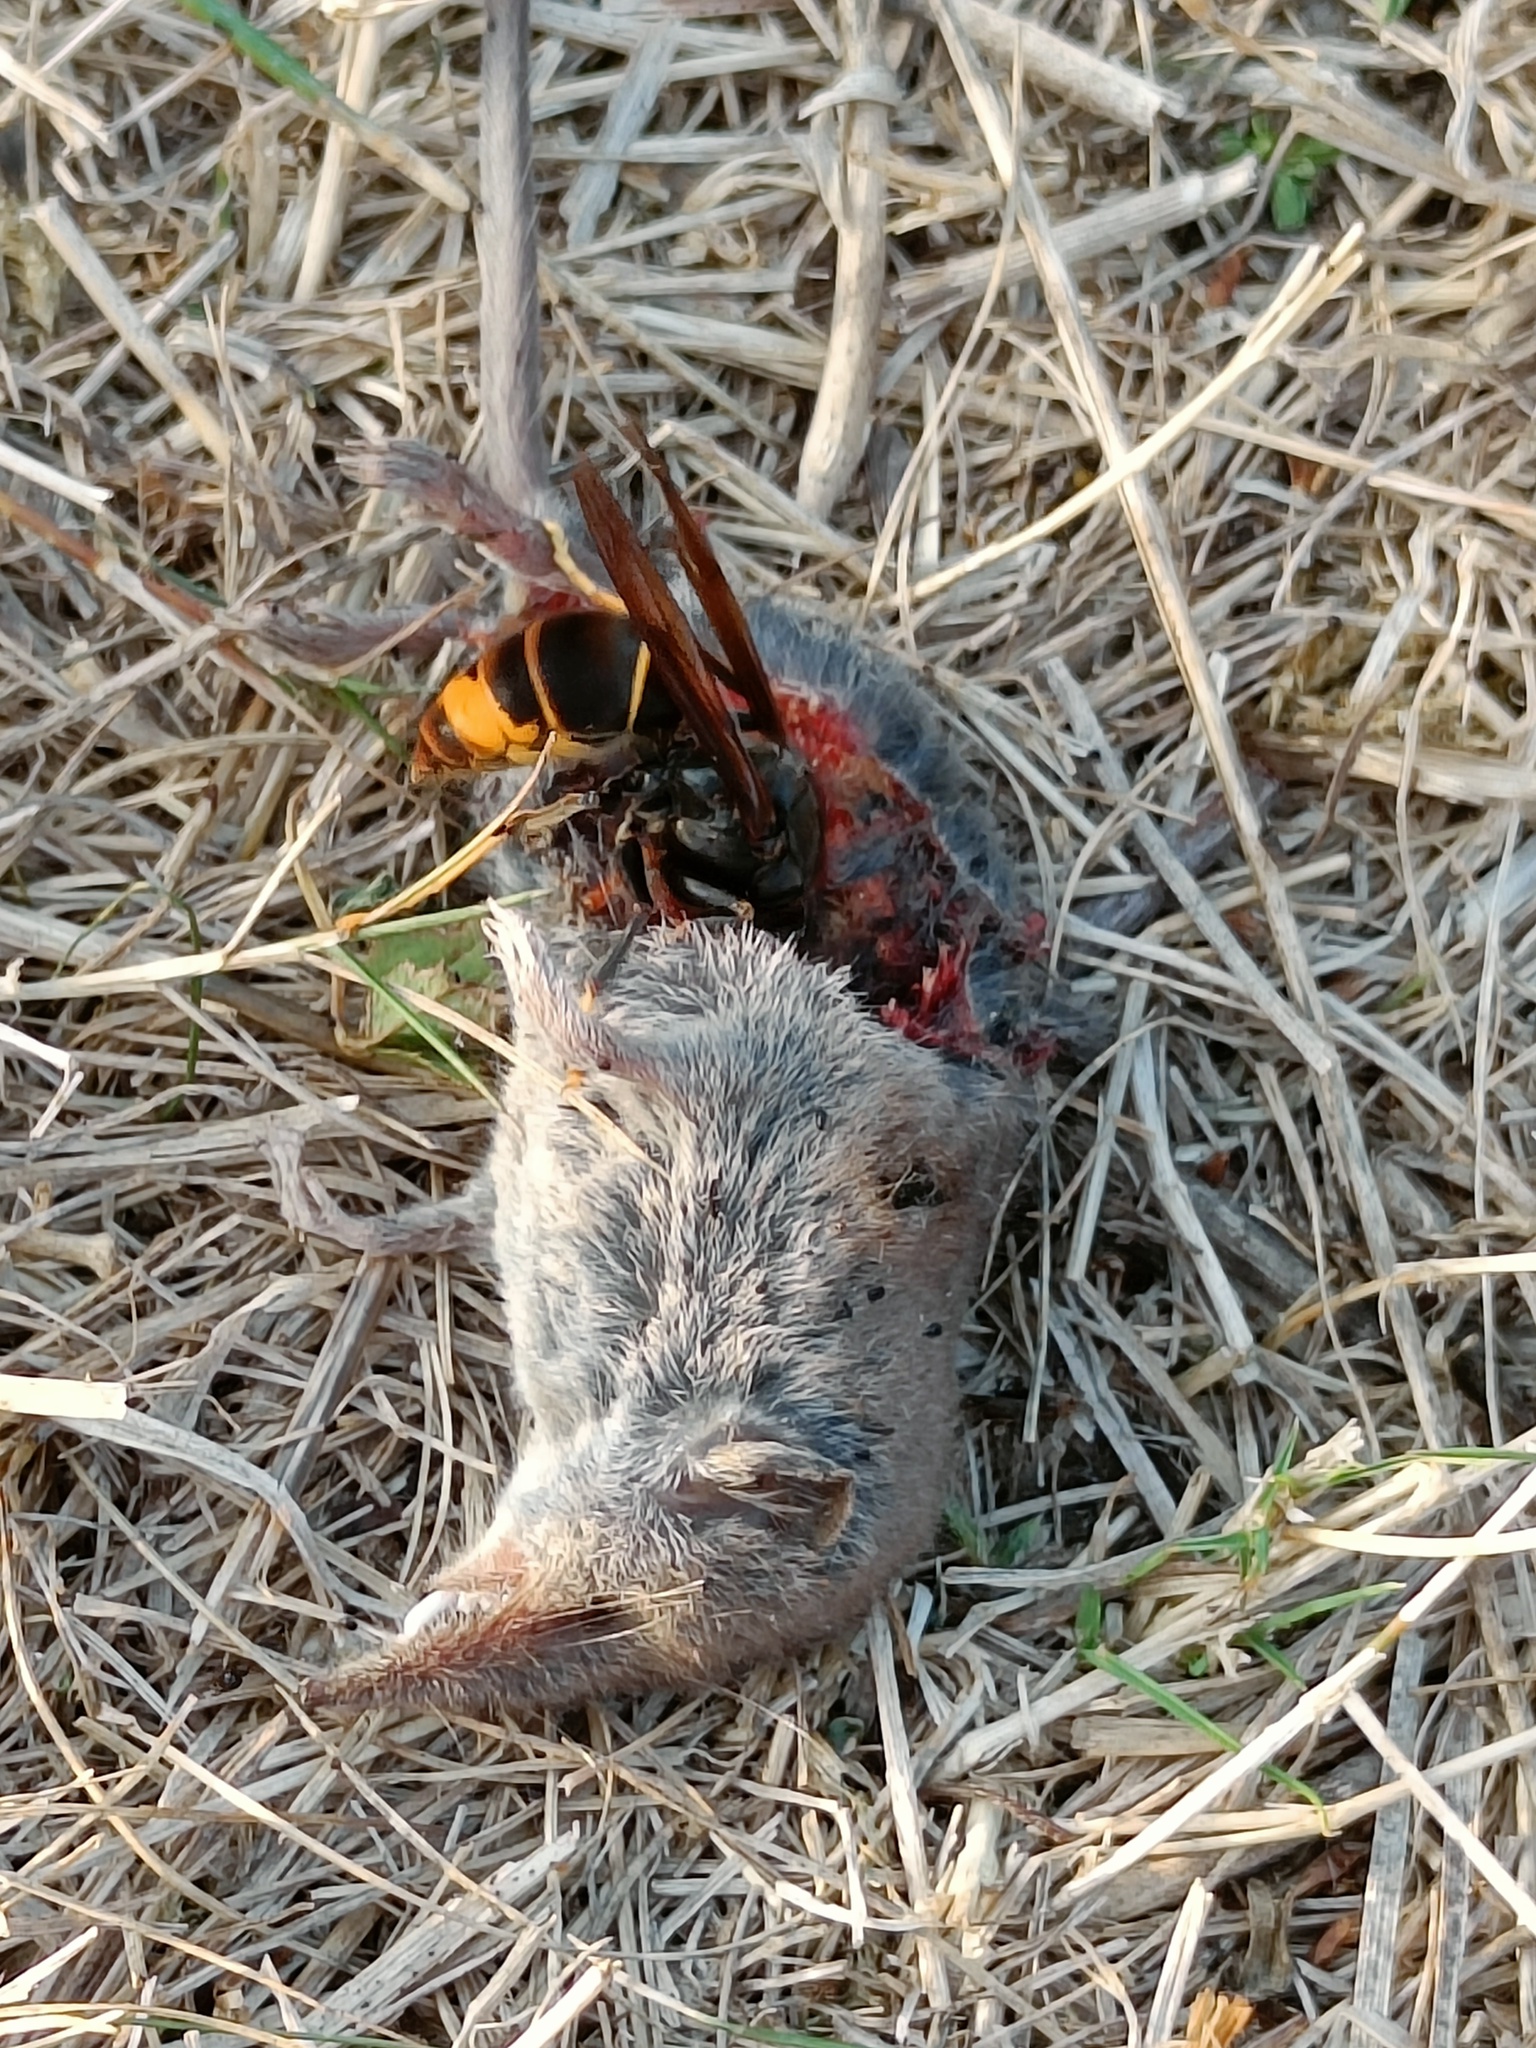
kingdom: Animalia
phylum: Arthropoda
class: Insecta
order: Hymenoptera
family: Vespidae
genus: Vespa
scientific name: Vespa velutina
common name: Asian hornet
